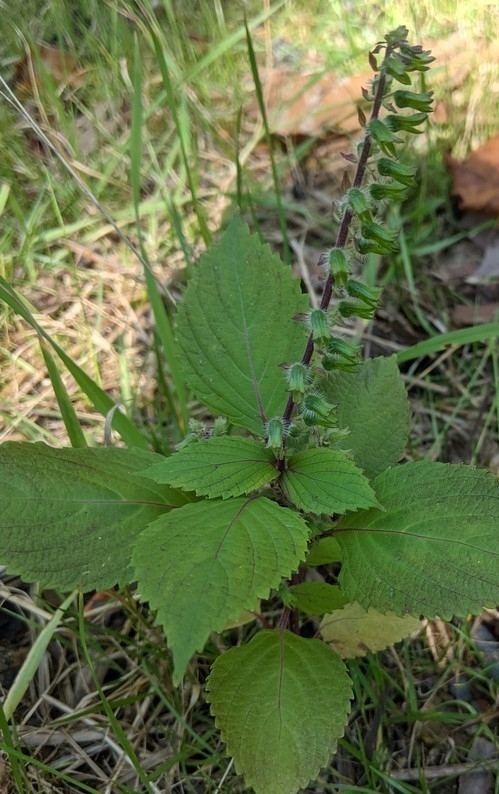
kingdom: Plantae
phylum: Tracheophyta
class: Magnoliopsida
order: Lamiales
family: Lamiaceae
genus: Perilla
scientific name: Perilla frutescens
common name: Perilla
